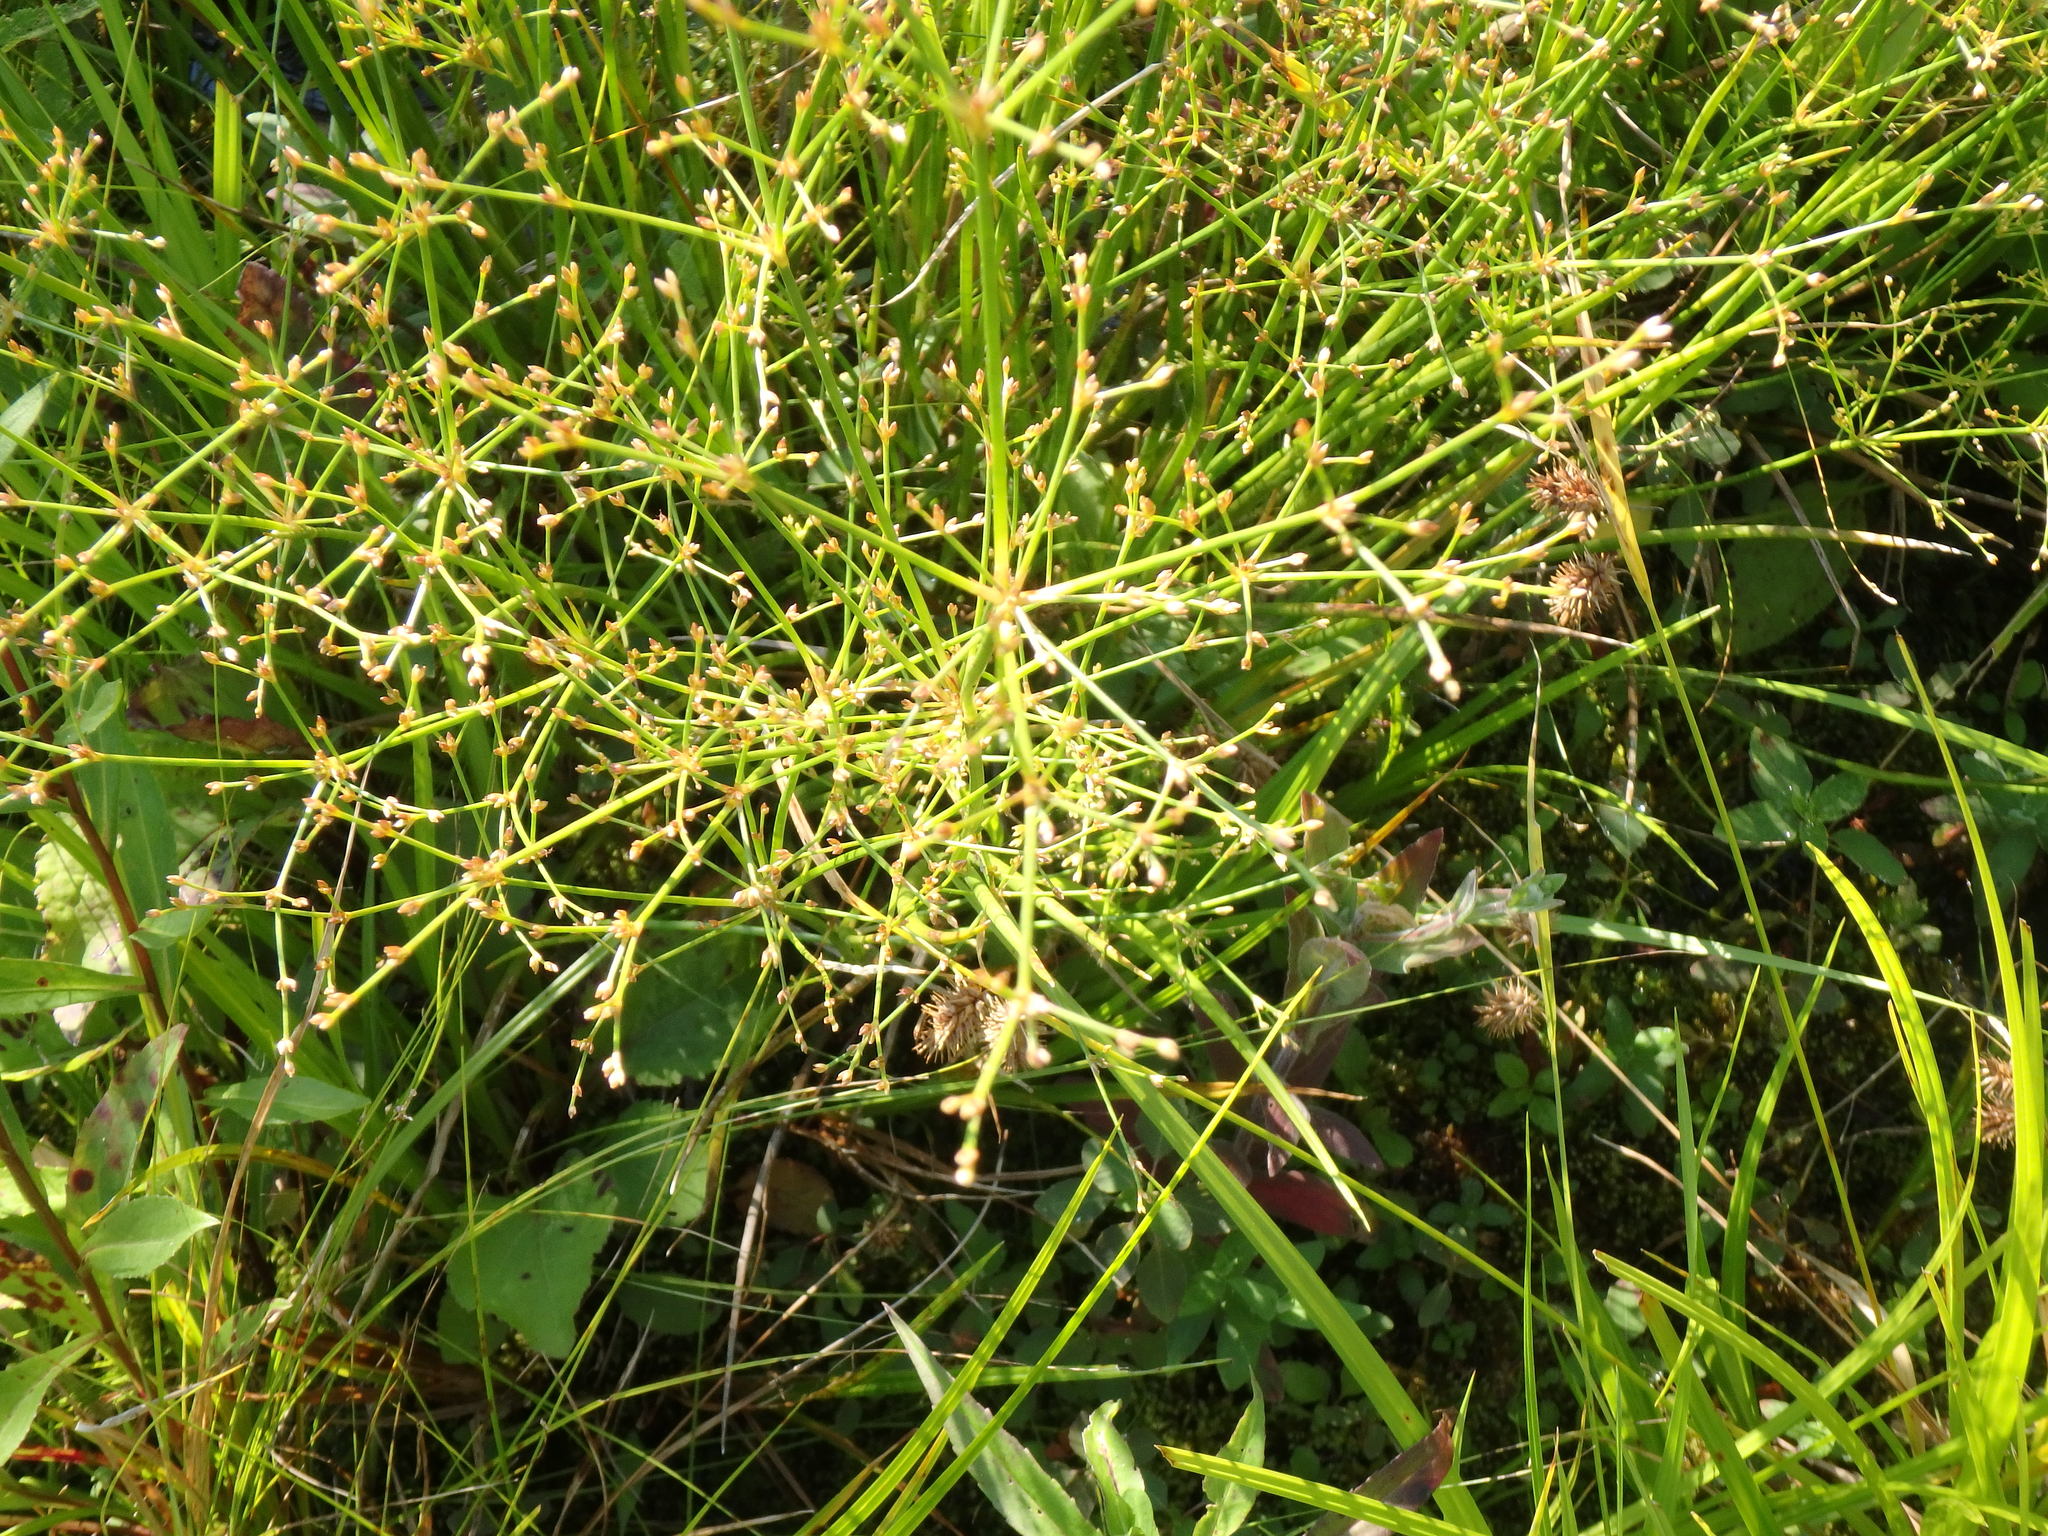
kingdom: Plantae
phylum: Tracheophyta
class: Liliopsida
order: Alismatales
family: Alismataceae
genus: Alisma
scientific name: Alisma triviale
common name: Northern water-plantain
